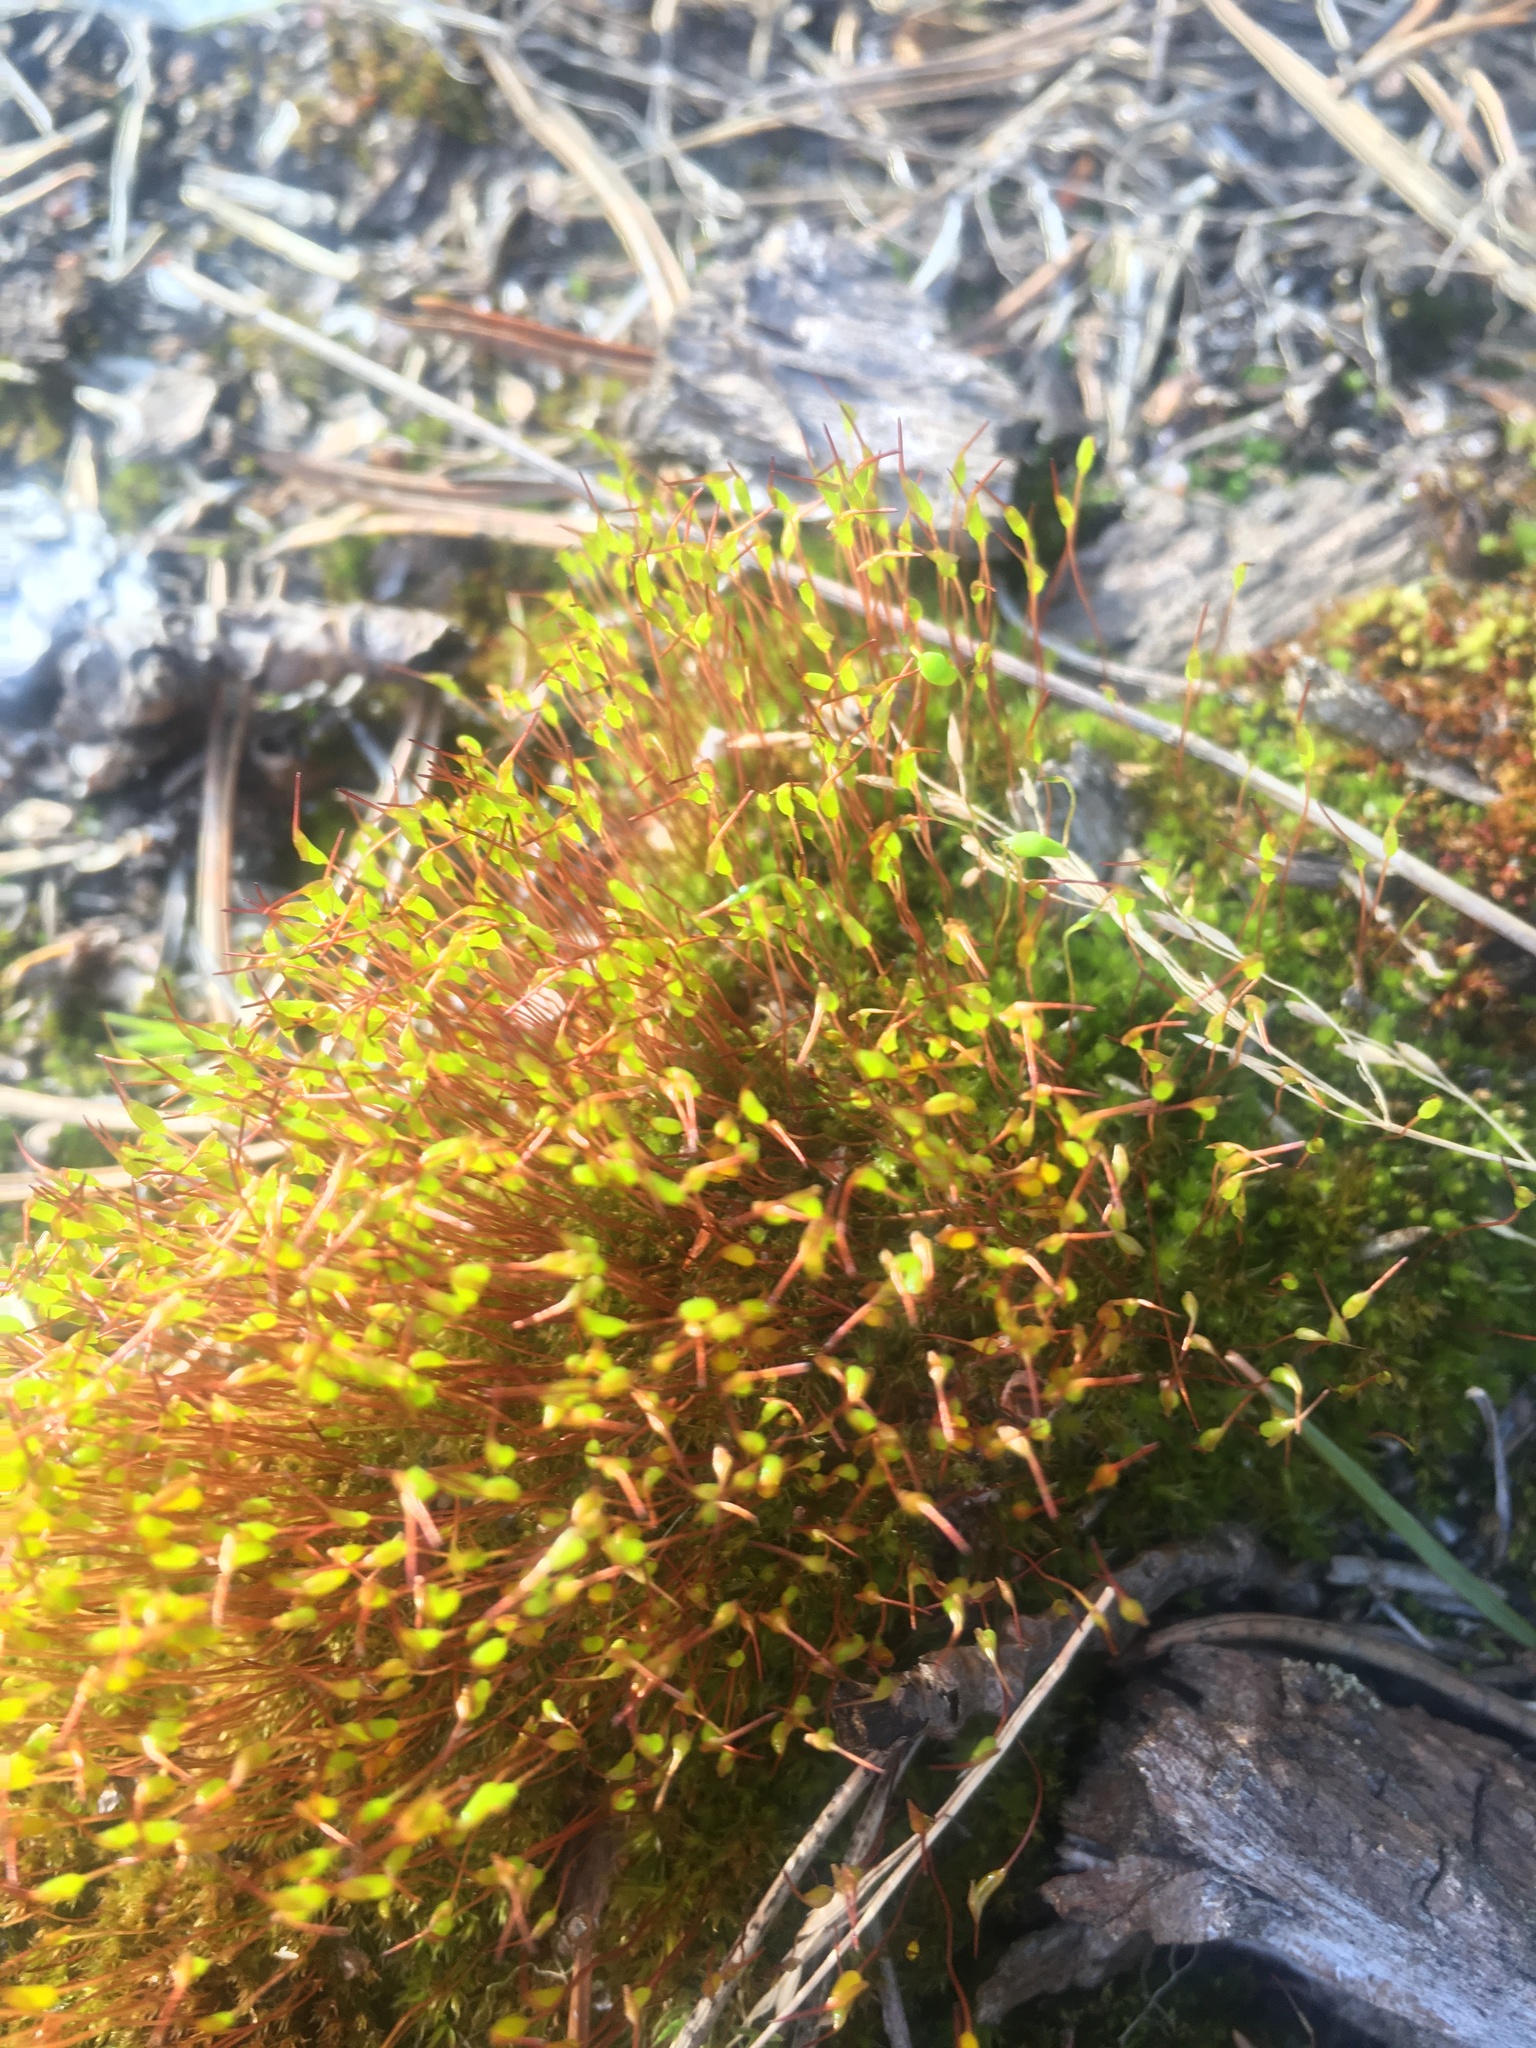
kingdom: Plantae
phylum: Bryophyta
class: Bryopsida
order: Dicranales
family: Ditrichaceae
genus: Ceratodon
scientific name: Ceratodon purpureus
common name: Redshank
